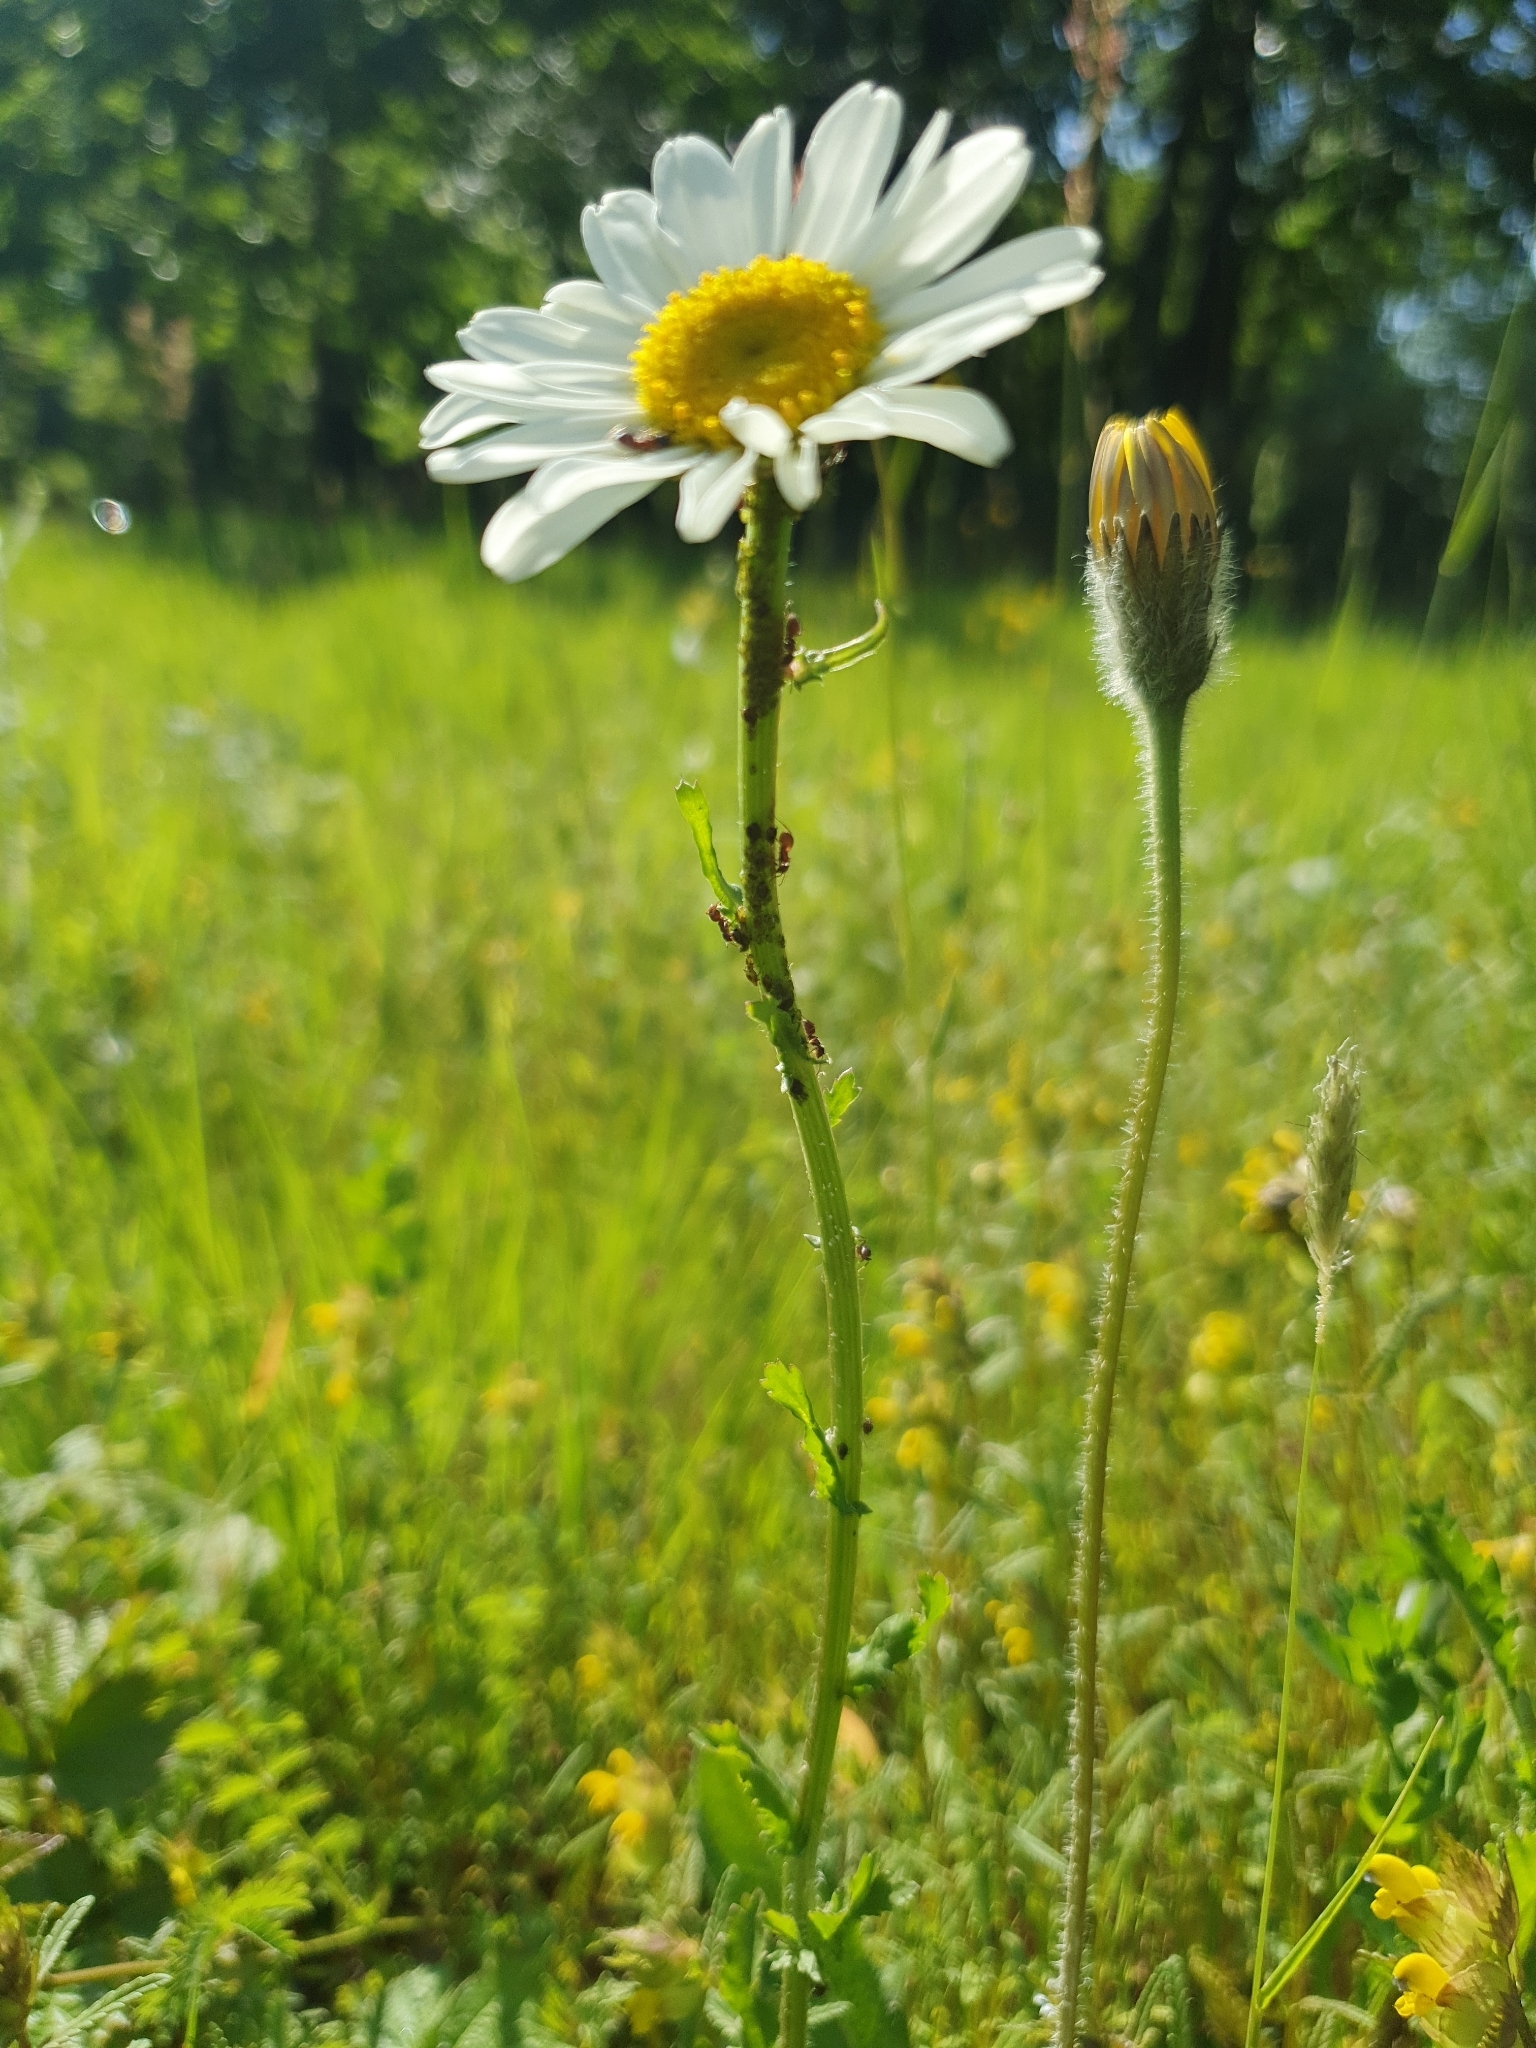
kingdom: Plantae
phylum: Tracheophyta
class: Magnoliopsida
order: Asterales
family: Asteraceae
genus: Leucanthemum
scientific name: Leucanthemum vulgare
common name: Oxeye daisy
